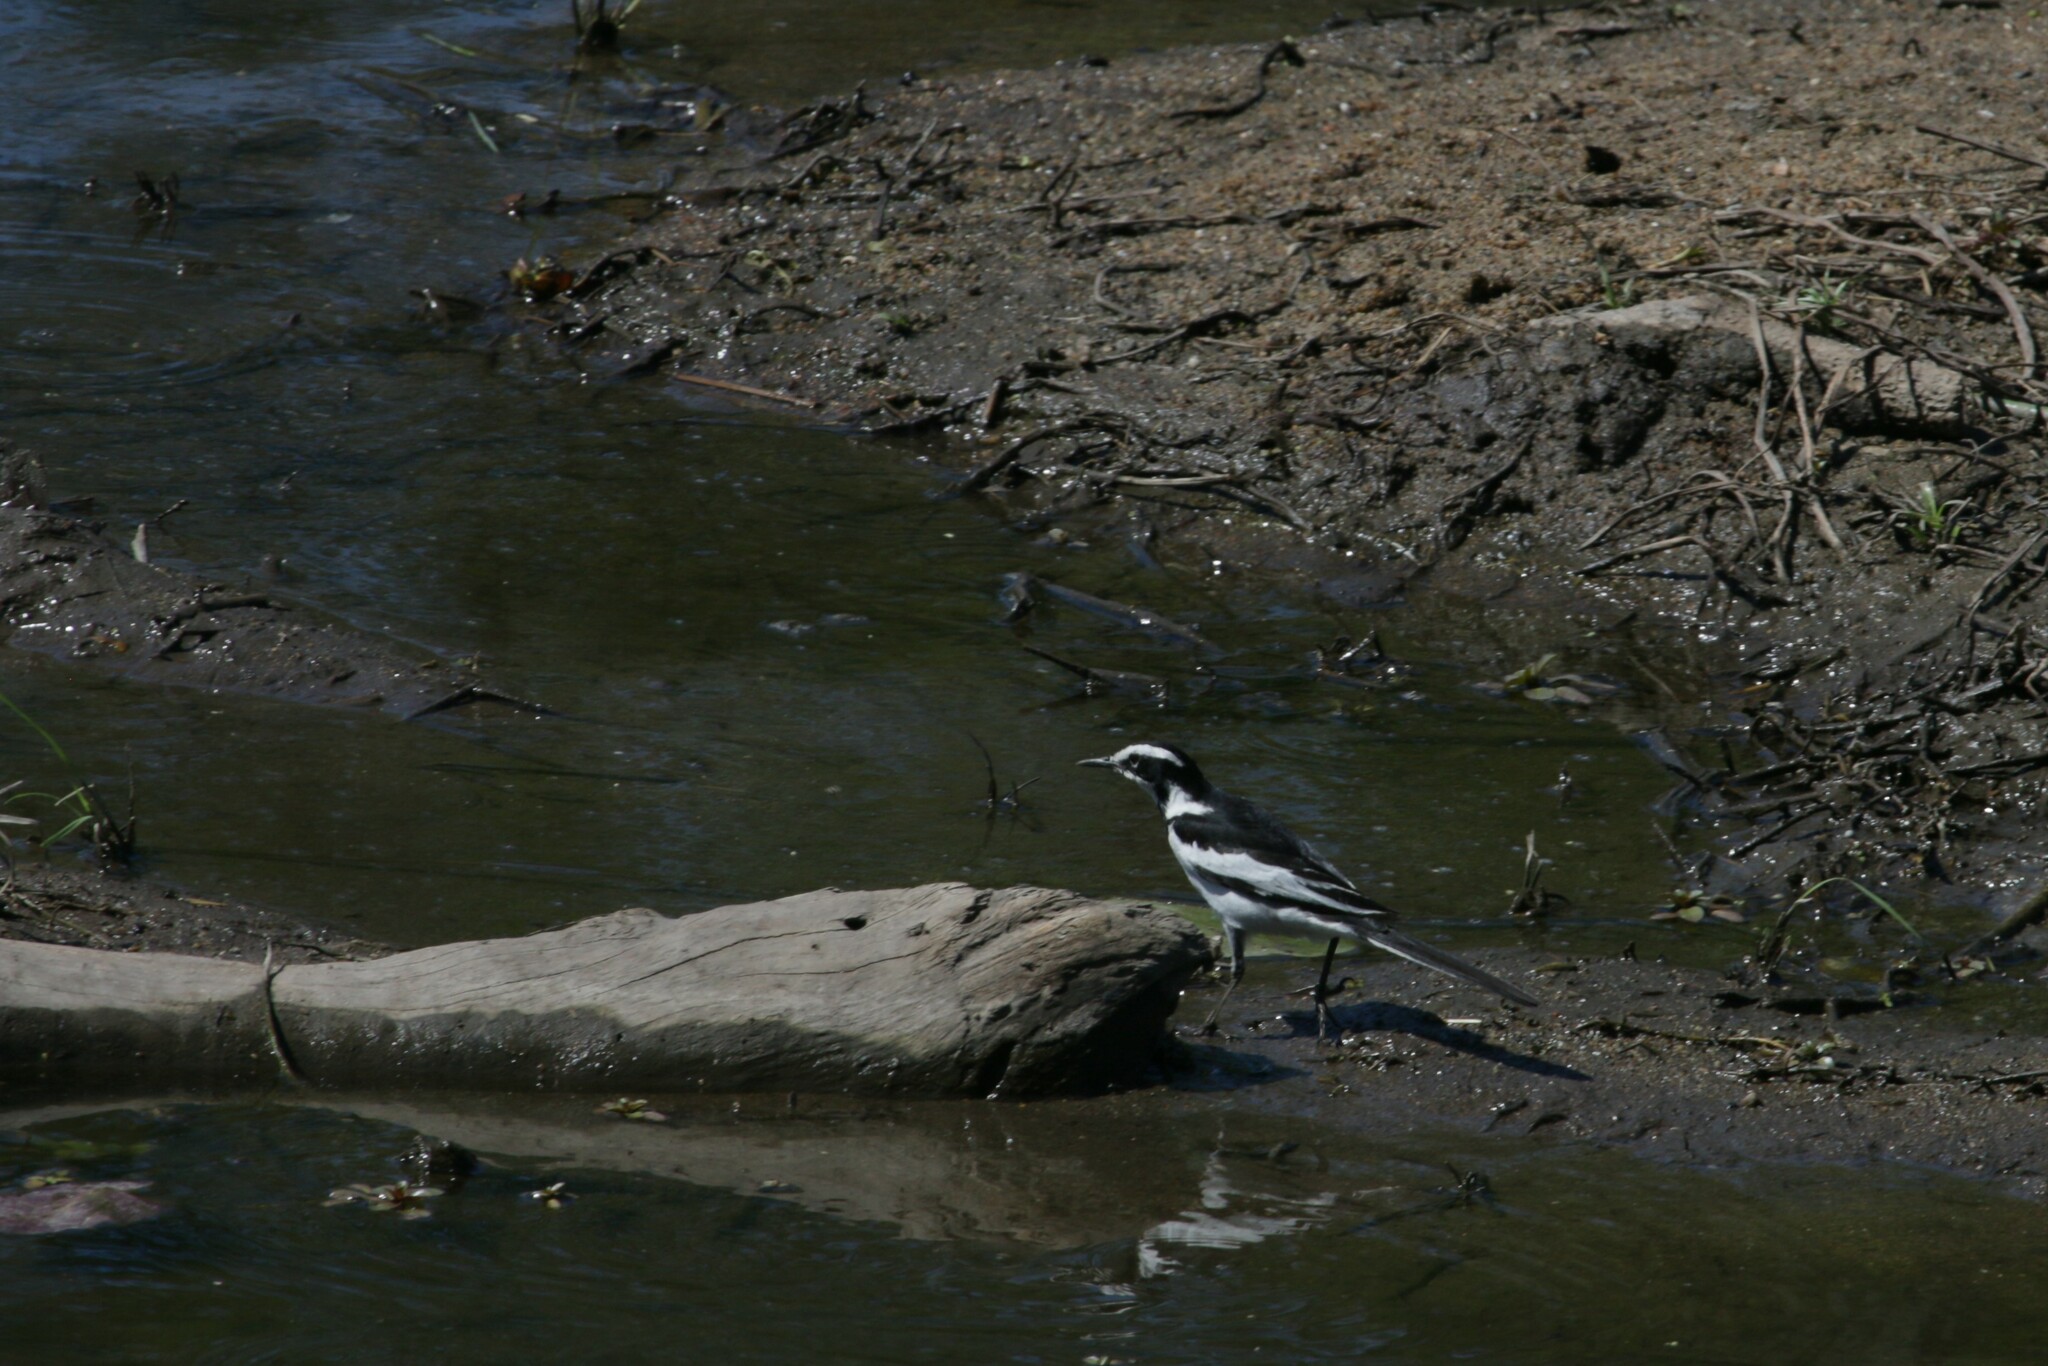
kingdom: Animalia
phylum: Chordata
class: Aves
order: Passeriformes
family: Motacillidae
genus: Motacilla
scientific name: Motacilla aguimp
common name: African pied wagtail
